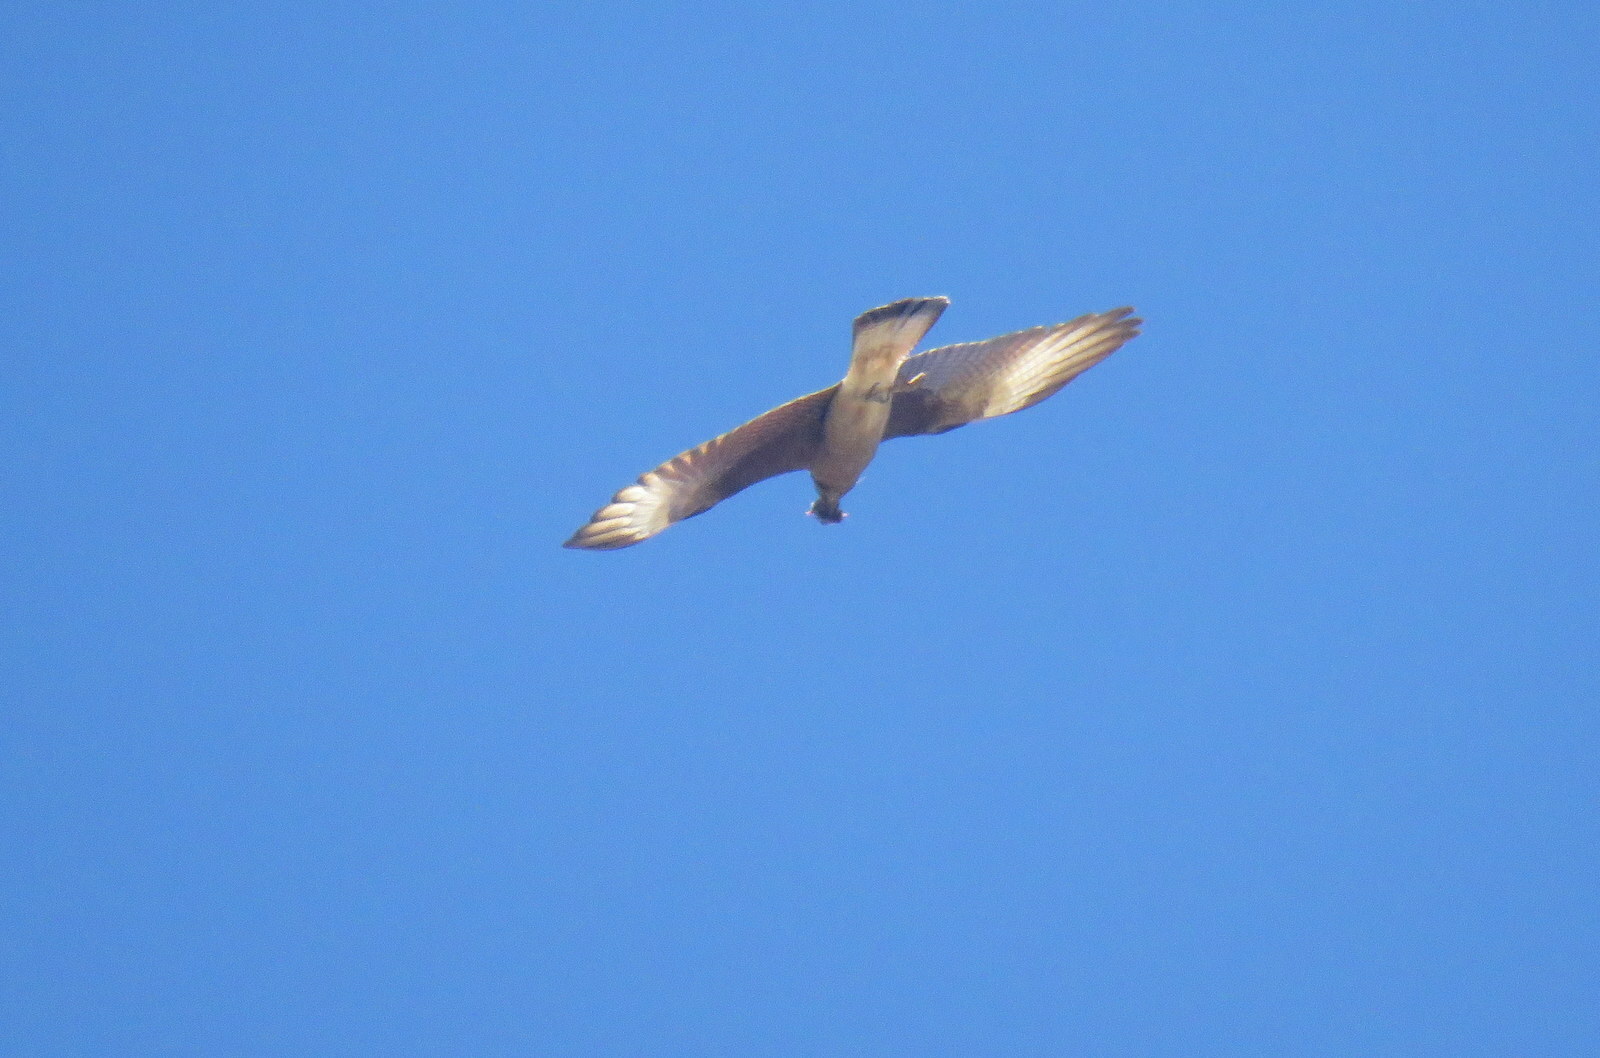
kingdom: Animalia
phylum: Chordata
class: Aves
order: Falconiformes
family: Falconidae
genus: Daptrius
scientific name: Daptrius
